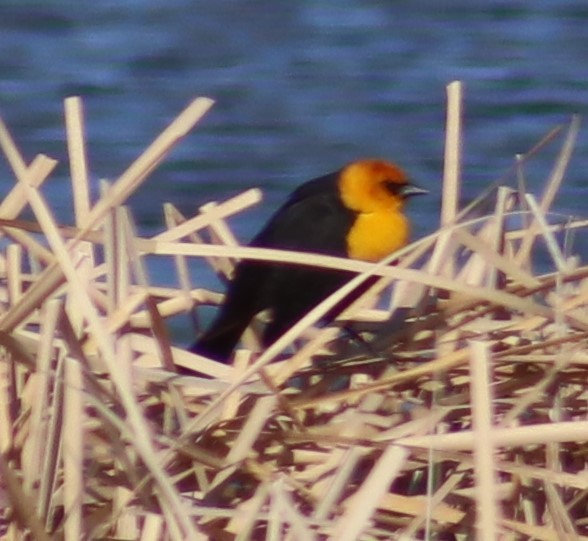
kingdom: Animalia
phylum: Chordata
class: Aves
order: Passeriformes
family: Icteridae
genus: Xanthocephalus
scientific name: Xanthocephalus xanthocephalus
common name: Yellow-headed blackbird
